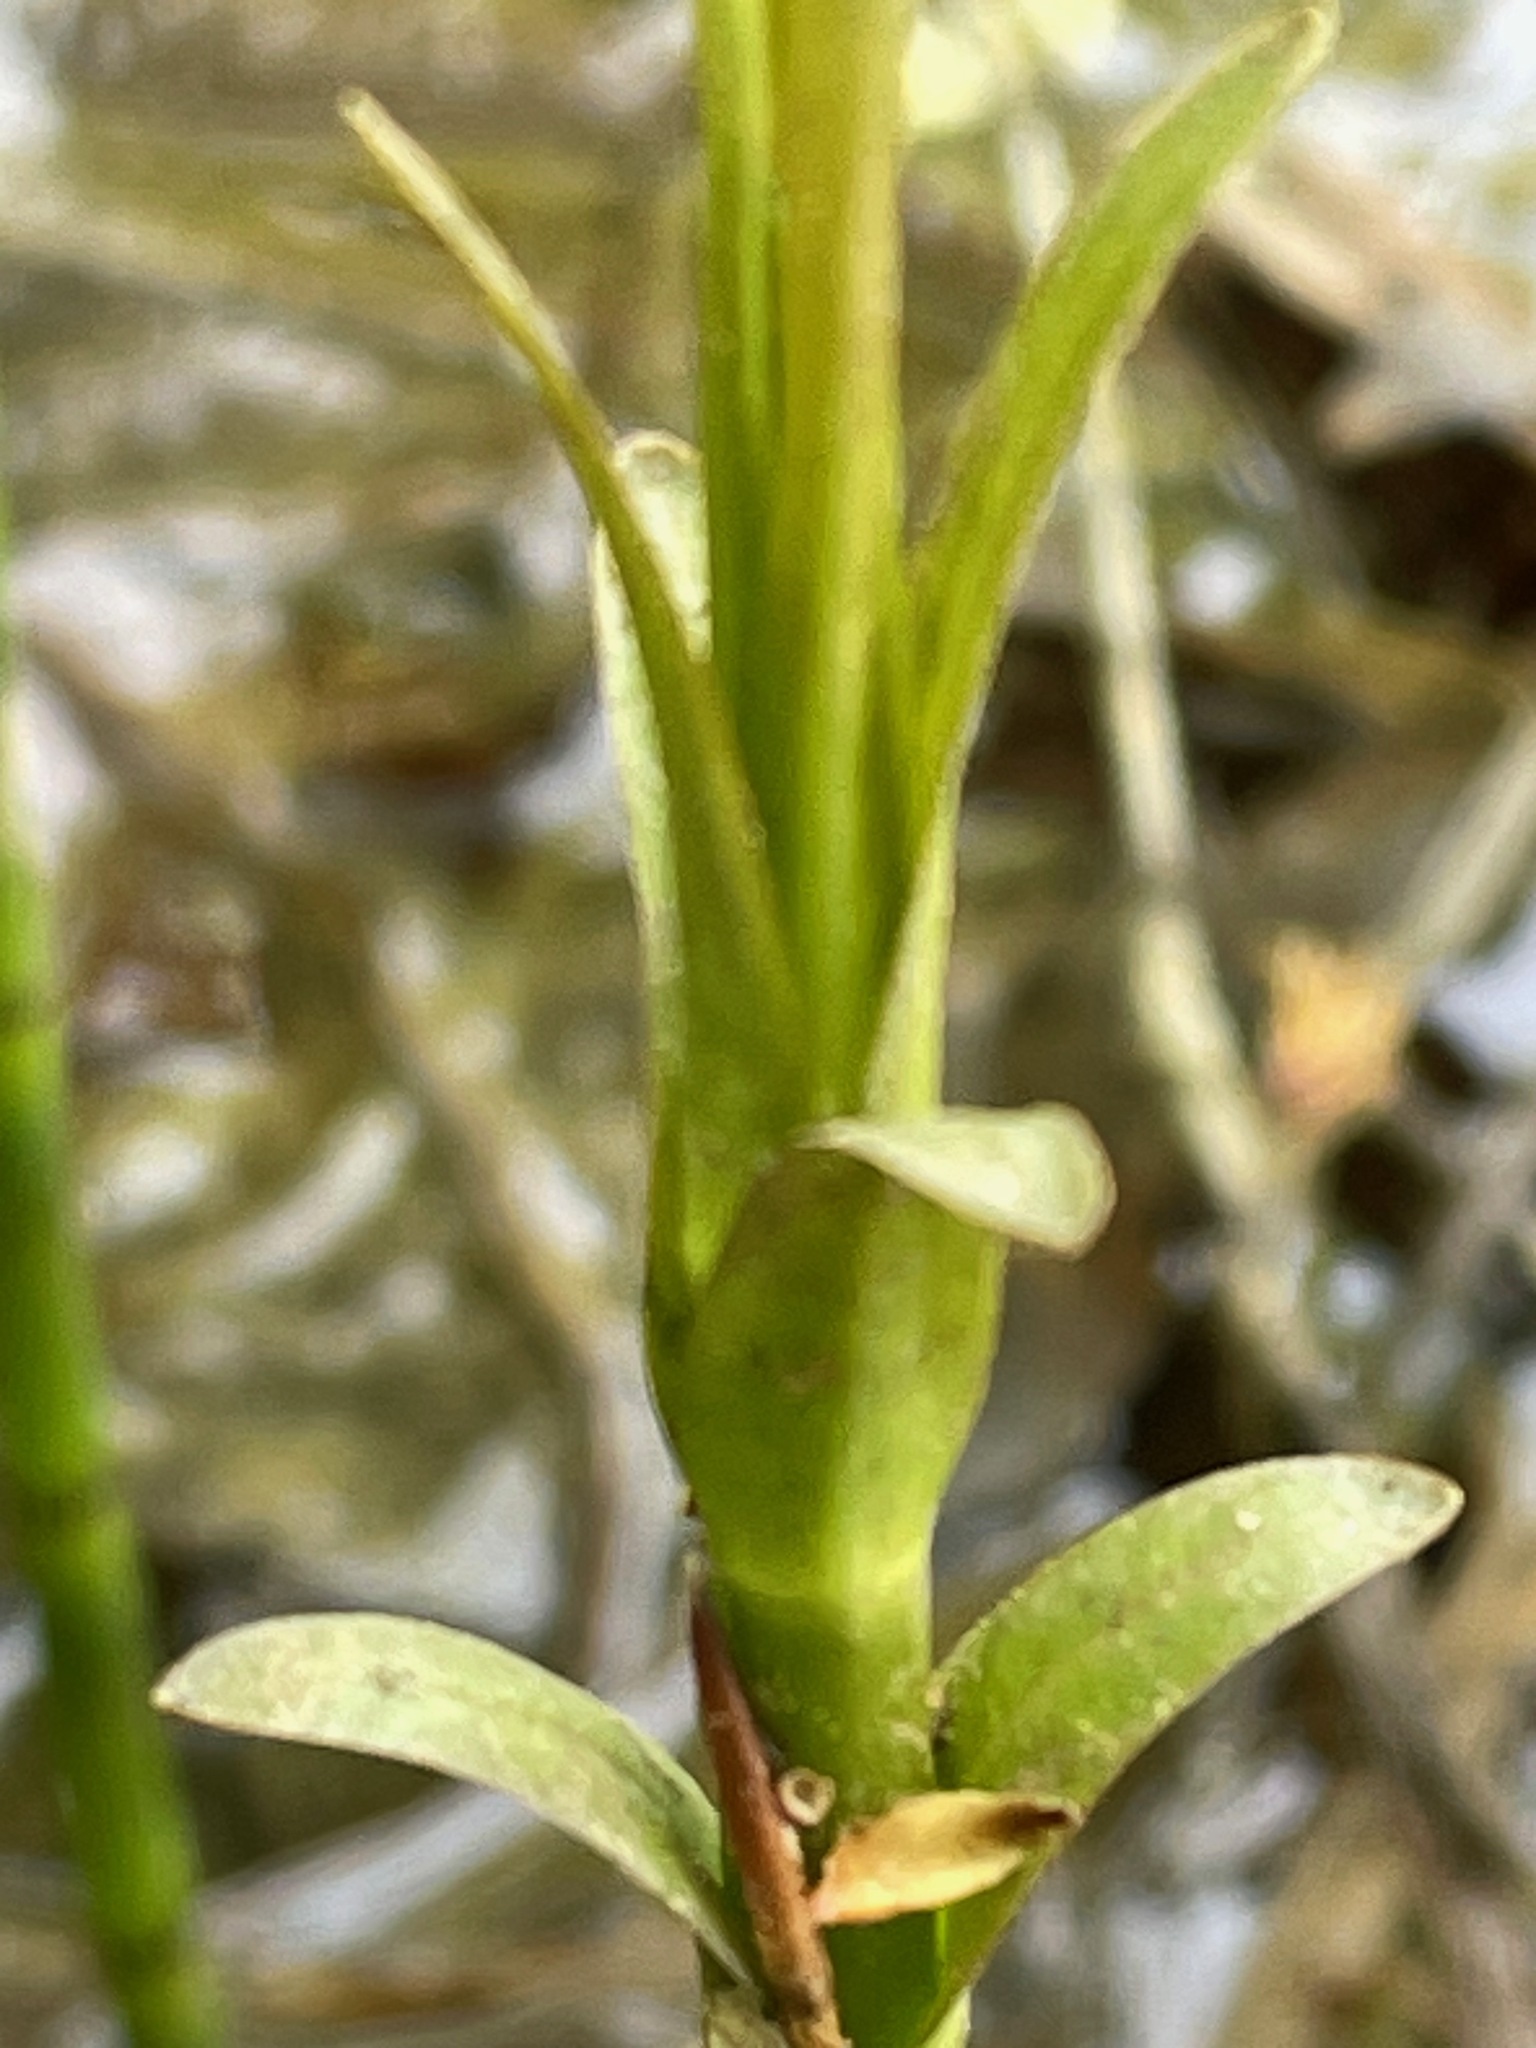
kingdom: Plantae
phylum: Tracheophyta
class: Magnoliopsida
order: Ericales
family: Primulaceae
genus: Lysimachia
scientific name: Lysimachia thyrsiflora
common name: Tufted loosestrife
